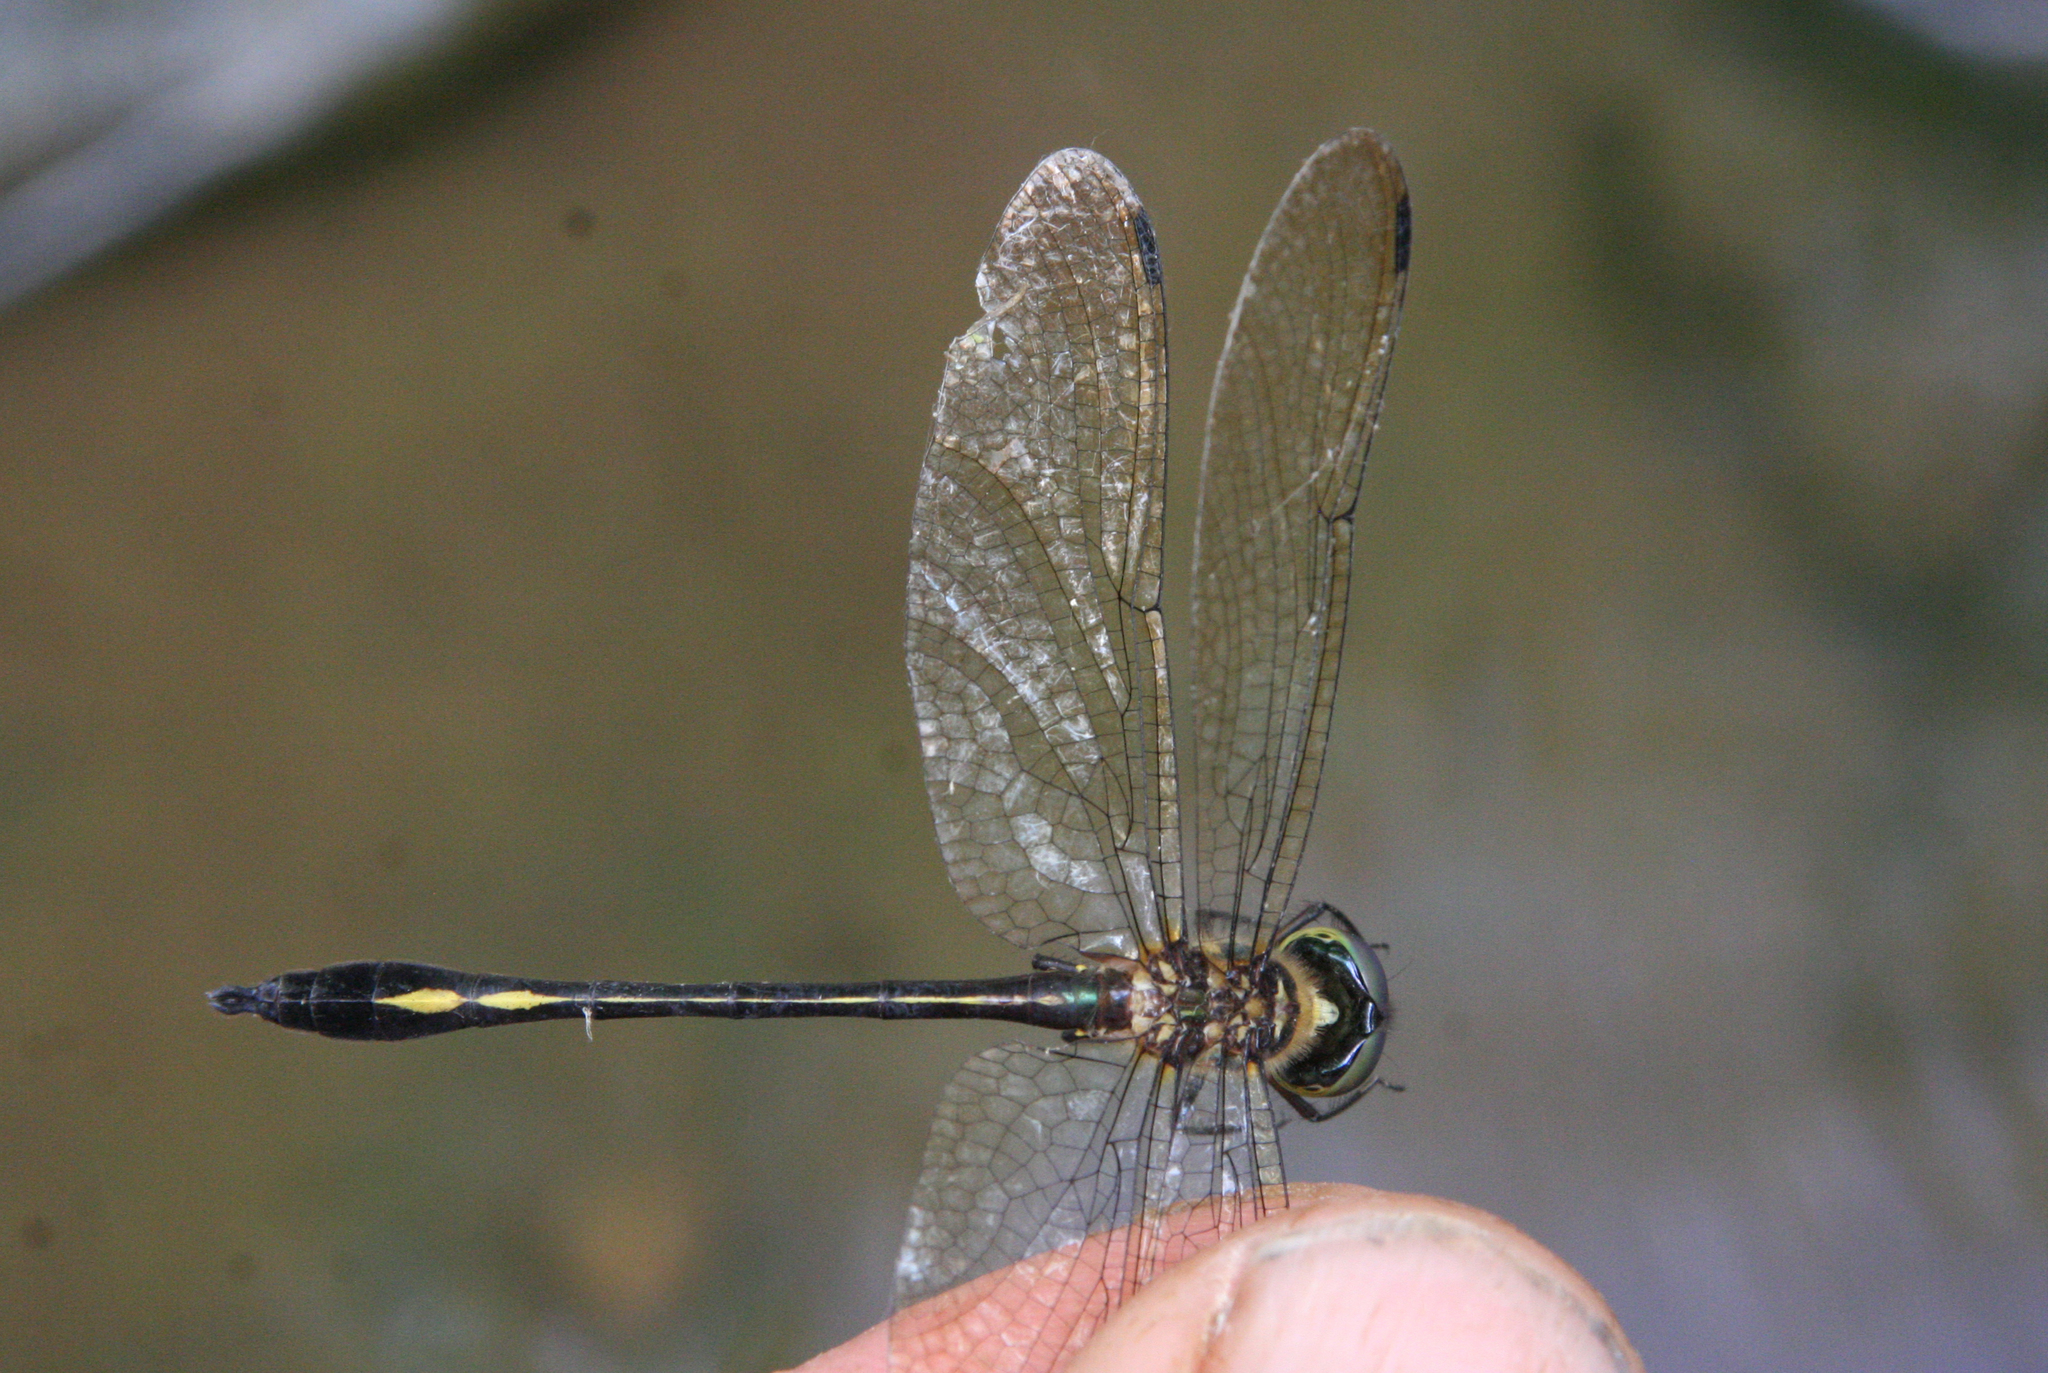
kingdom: Animalia
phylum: Arthropoda
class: Insecta
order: Odonata
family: Corduliidae
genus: Macromidia
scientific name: Macromidia genialis
